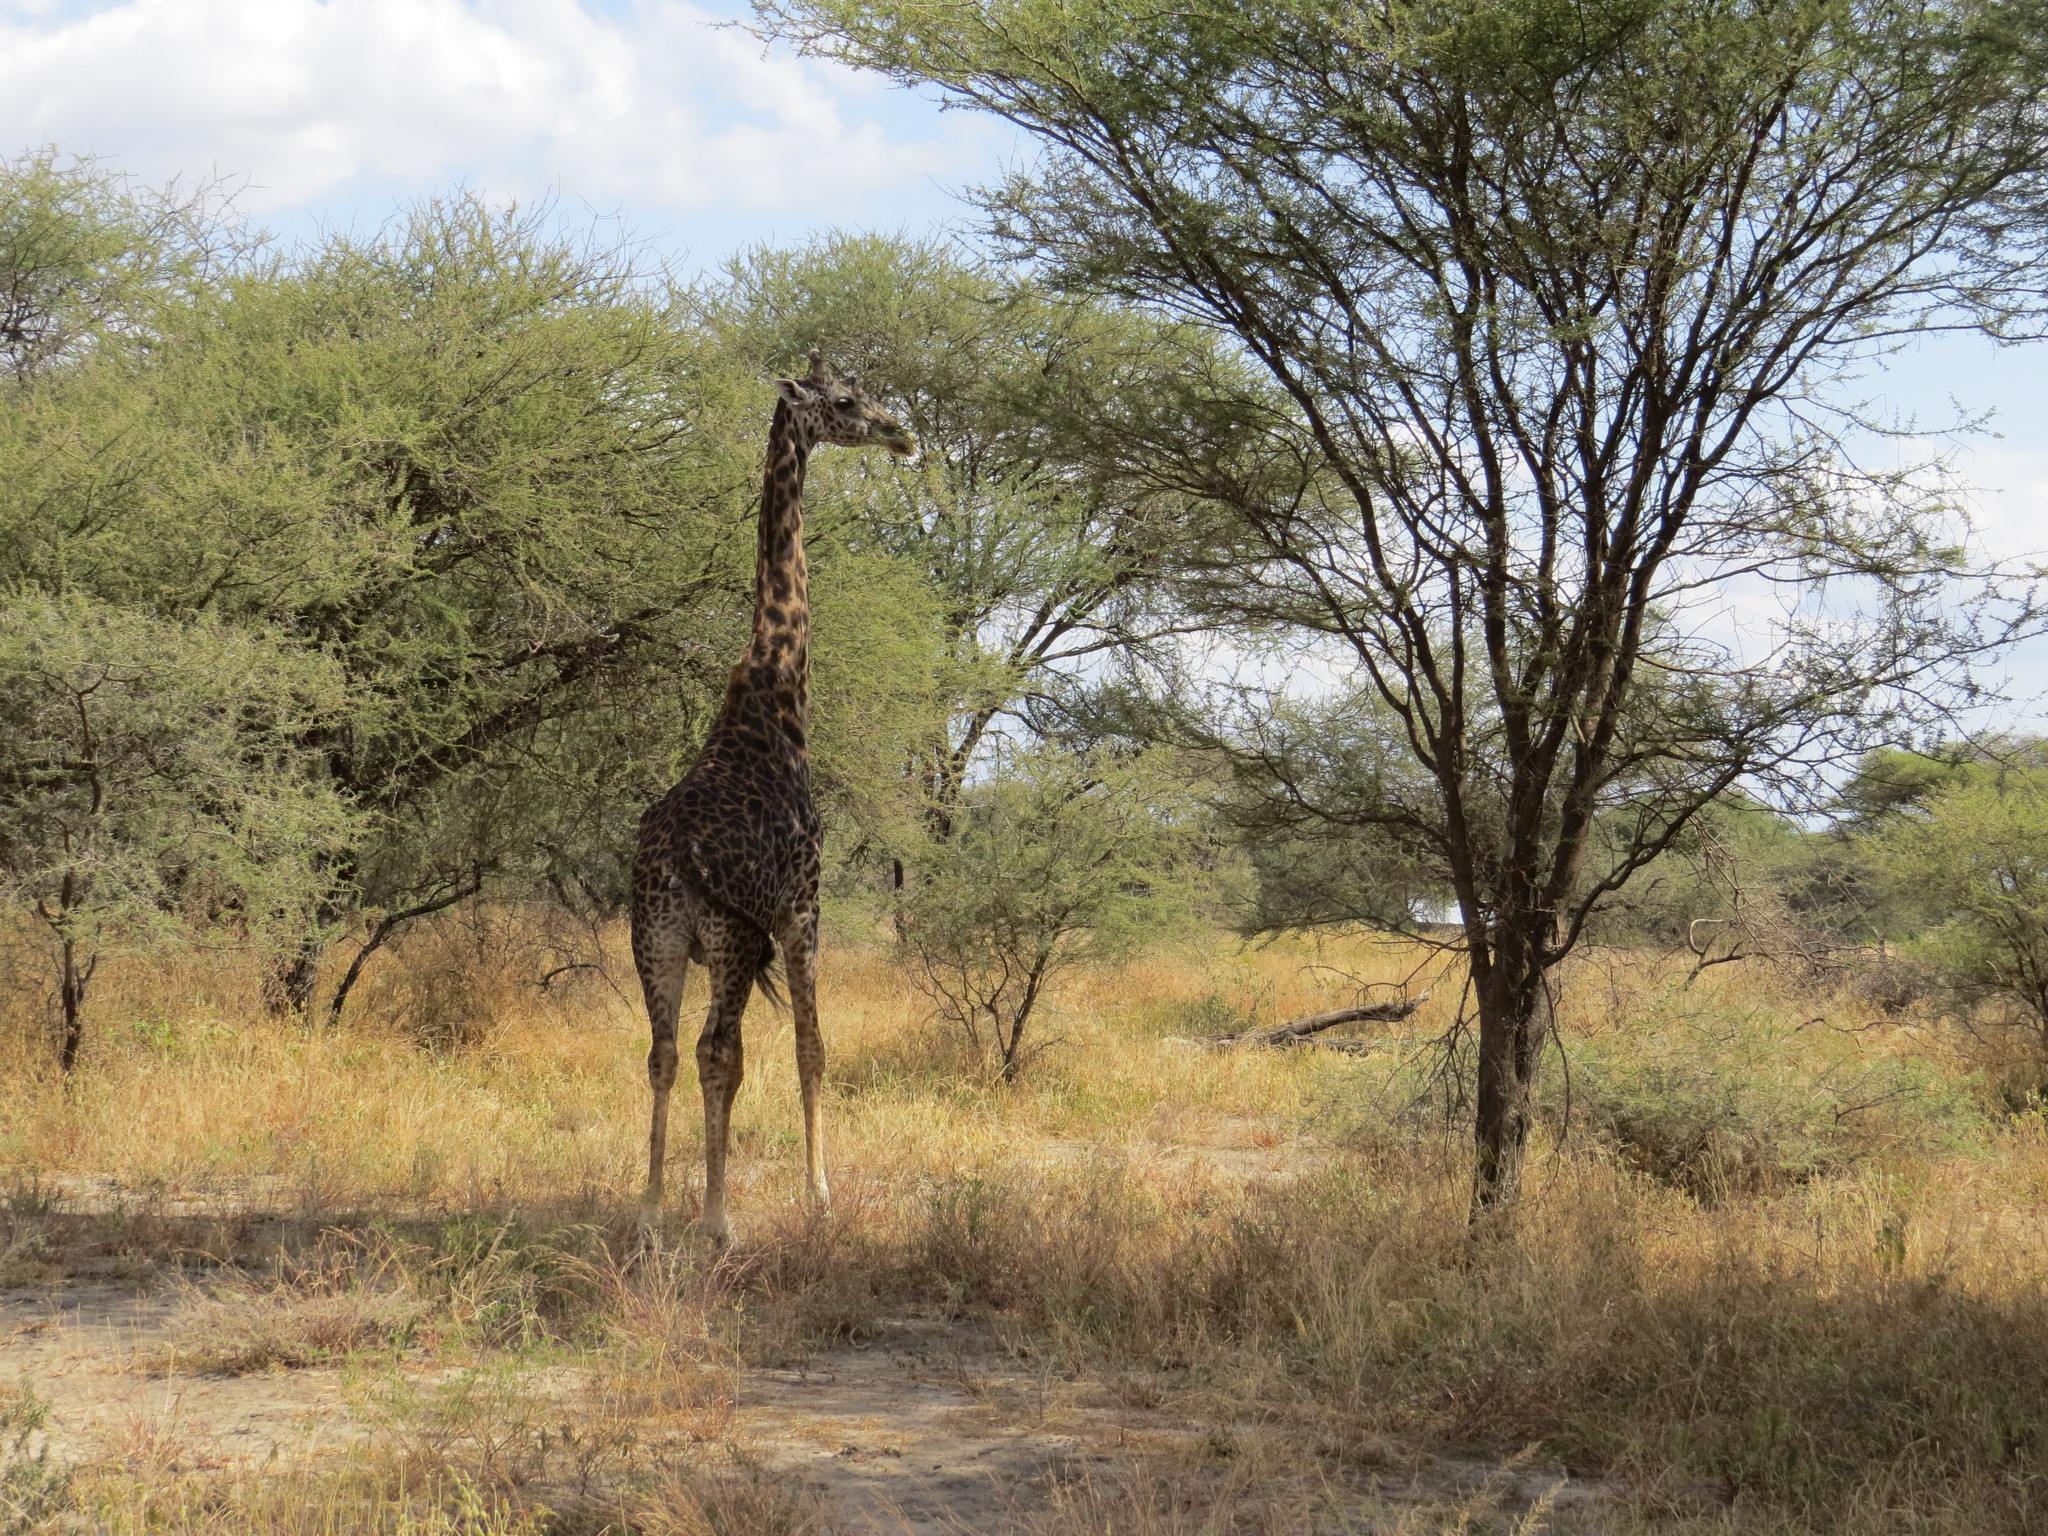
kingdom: Animalia
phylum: Chordata
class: Mammalia
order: Artiodactyla
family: Giraffidae
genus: Giraffa
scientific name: Giraffa tippelskirchi
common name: Masai giraffe
